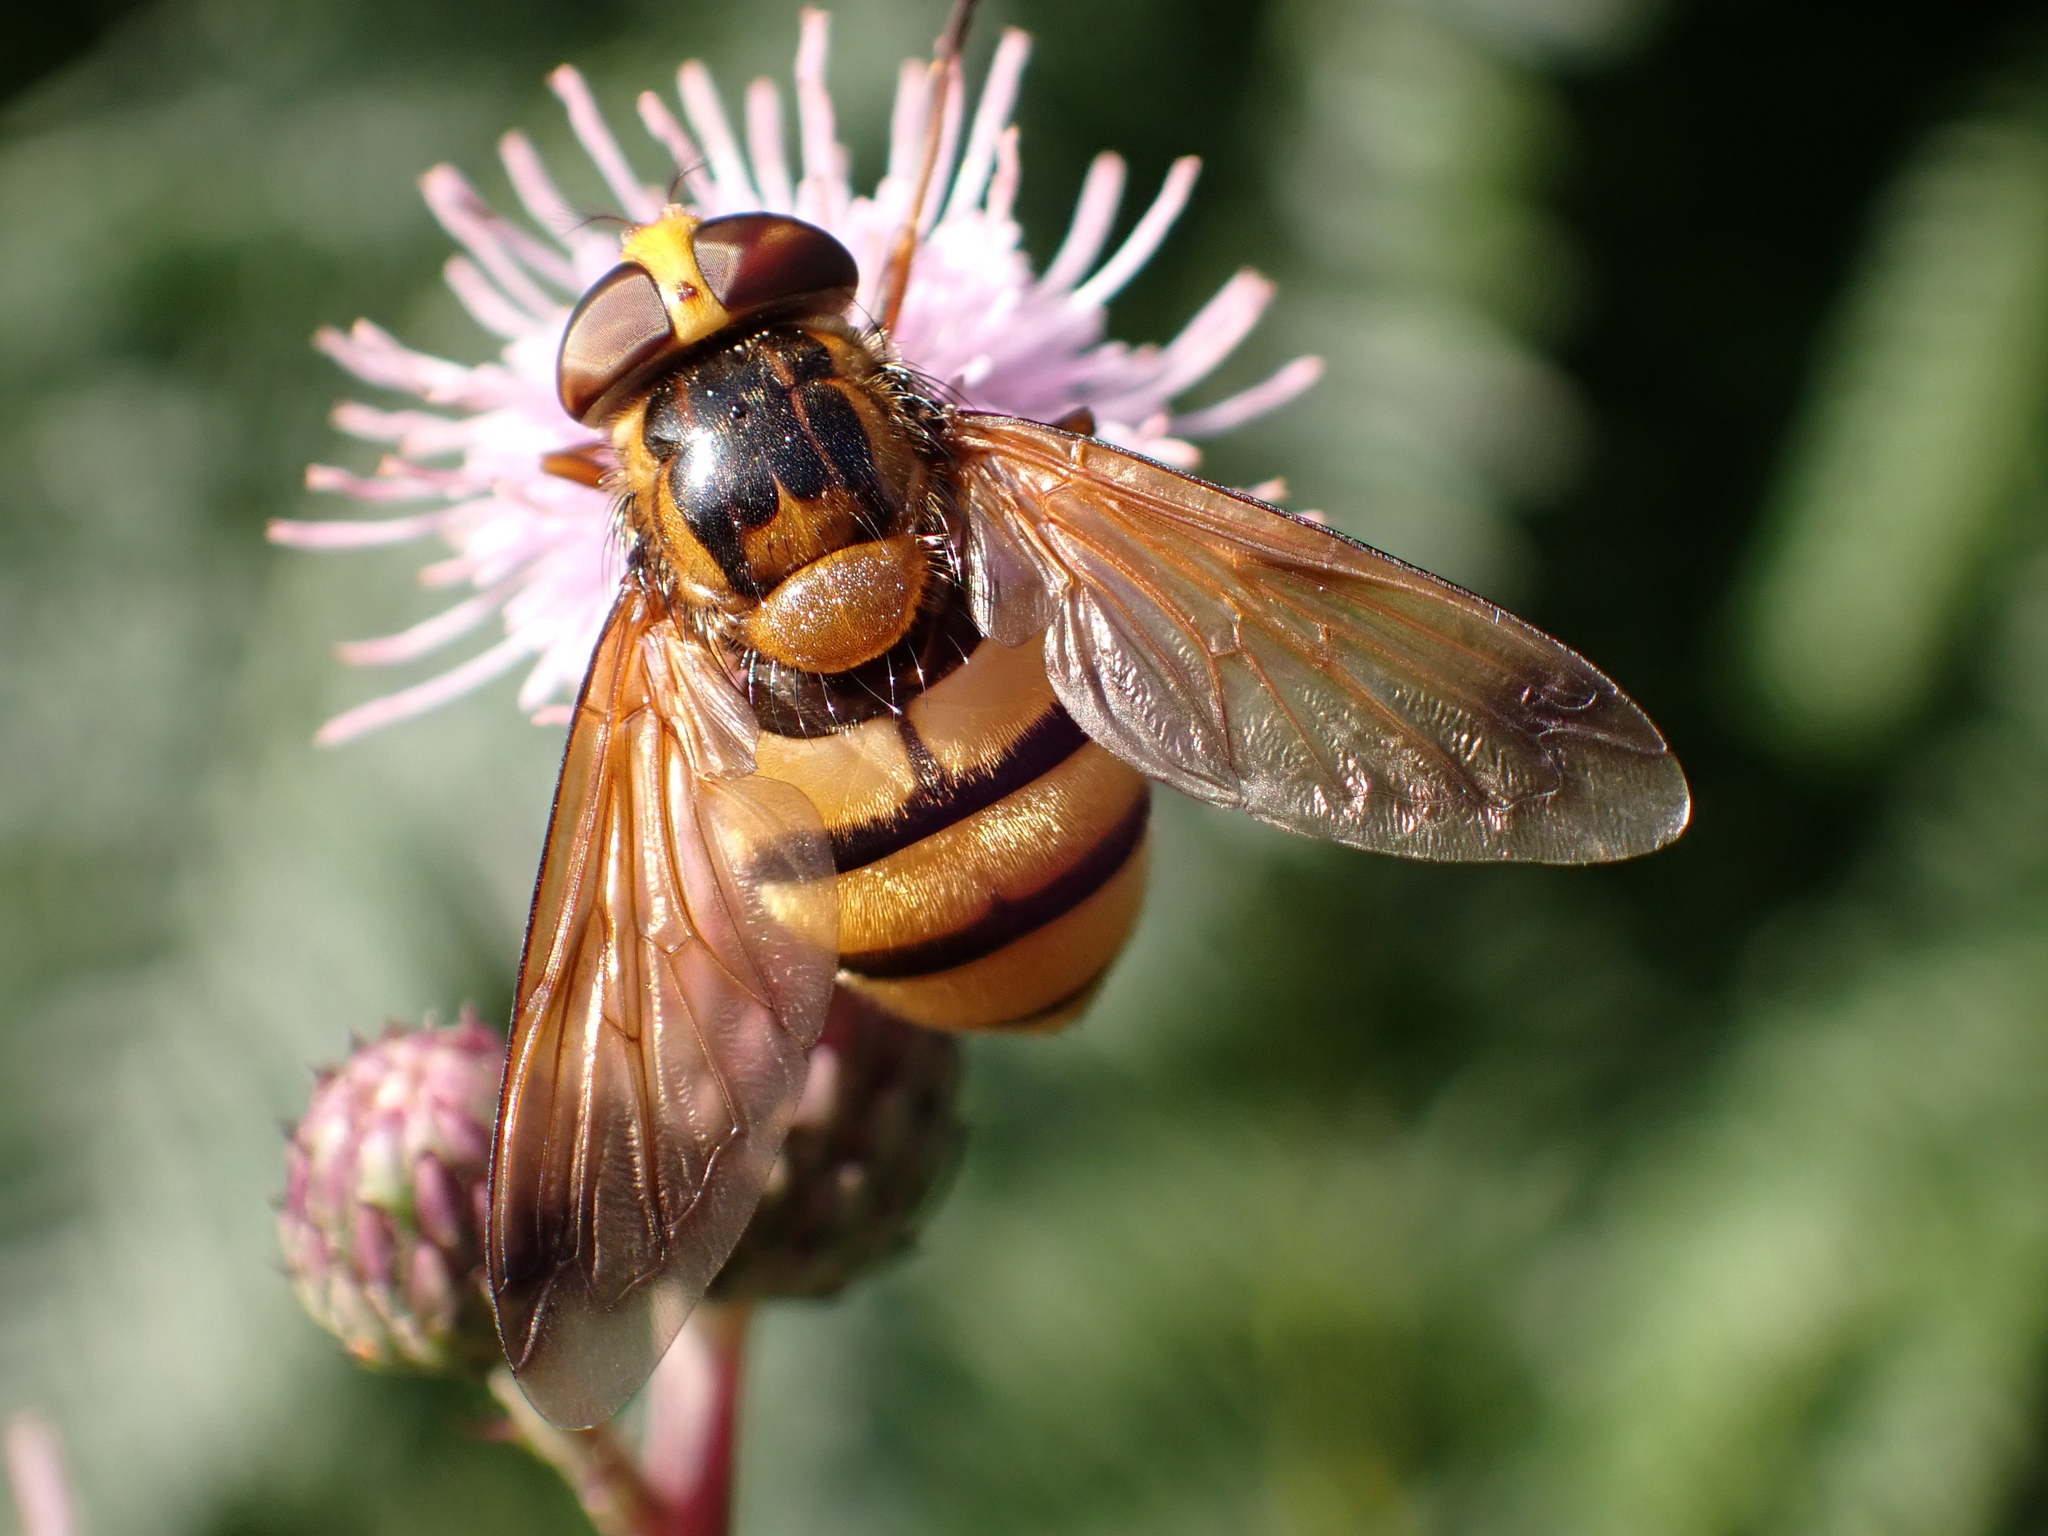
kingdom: Animalia
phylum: Arthropoda
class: Insecta
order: Diptera
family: Syrphidae
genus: Volucella
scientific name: Volucella inanis
